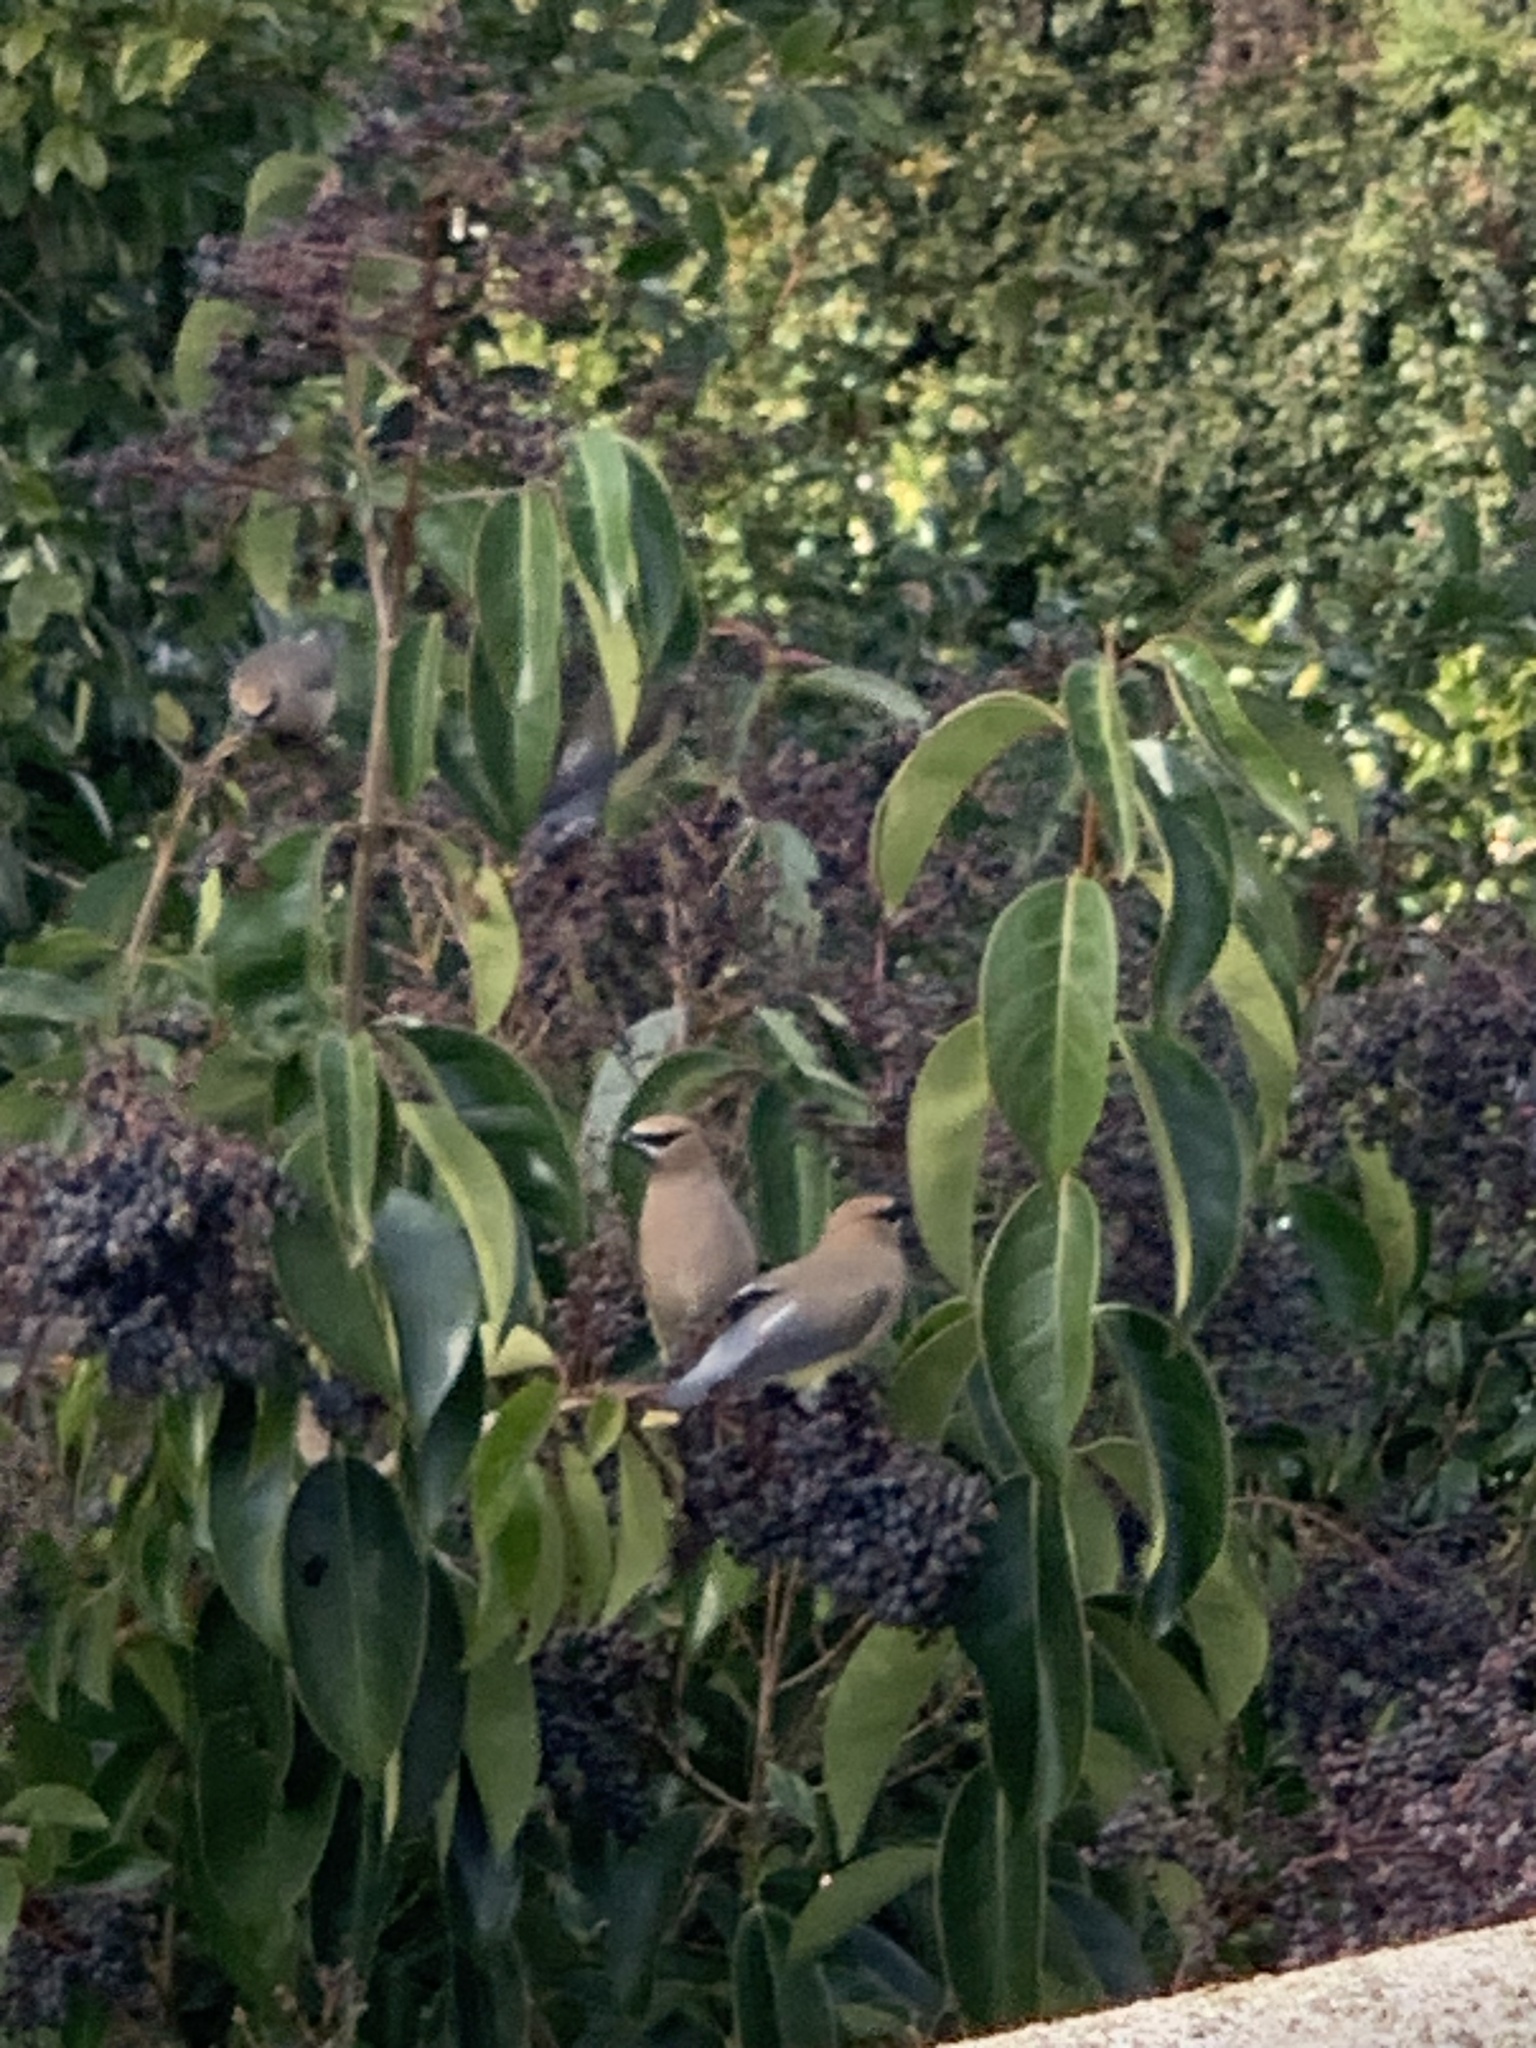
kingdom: Animalia
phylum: Chordata
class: Aves
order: Passeriformes
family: Bombycillidae
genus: Bombycilla
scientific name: Bombycilla cedrorum
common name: Cedar waxwing
